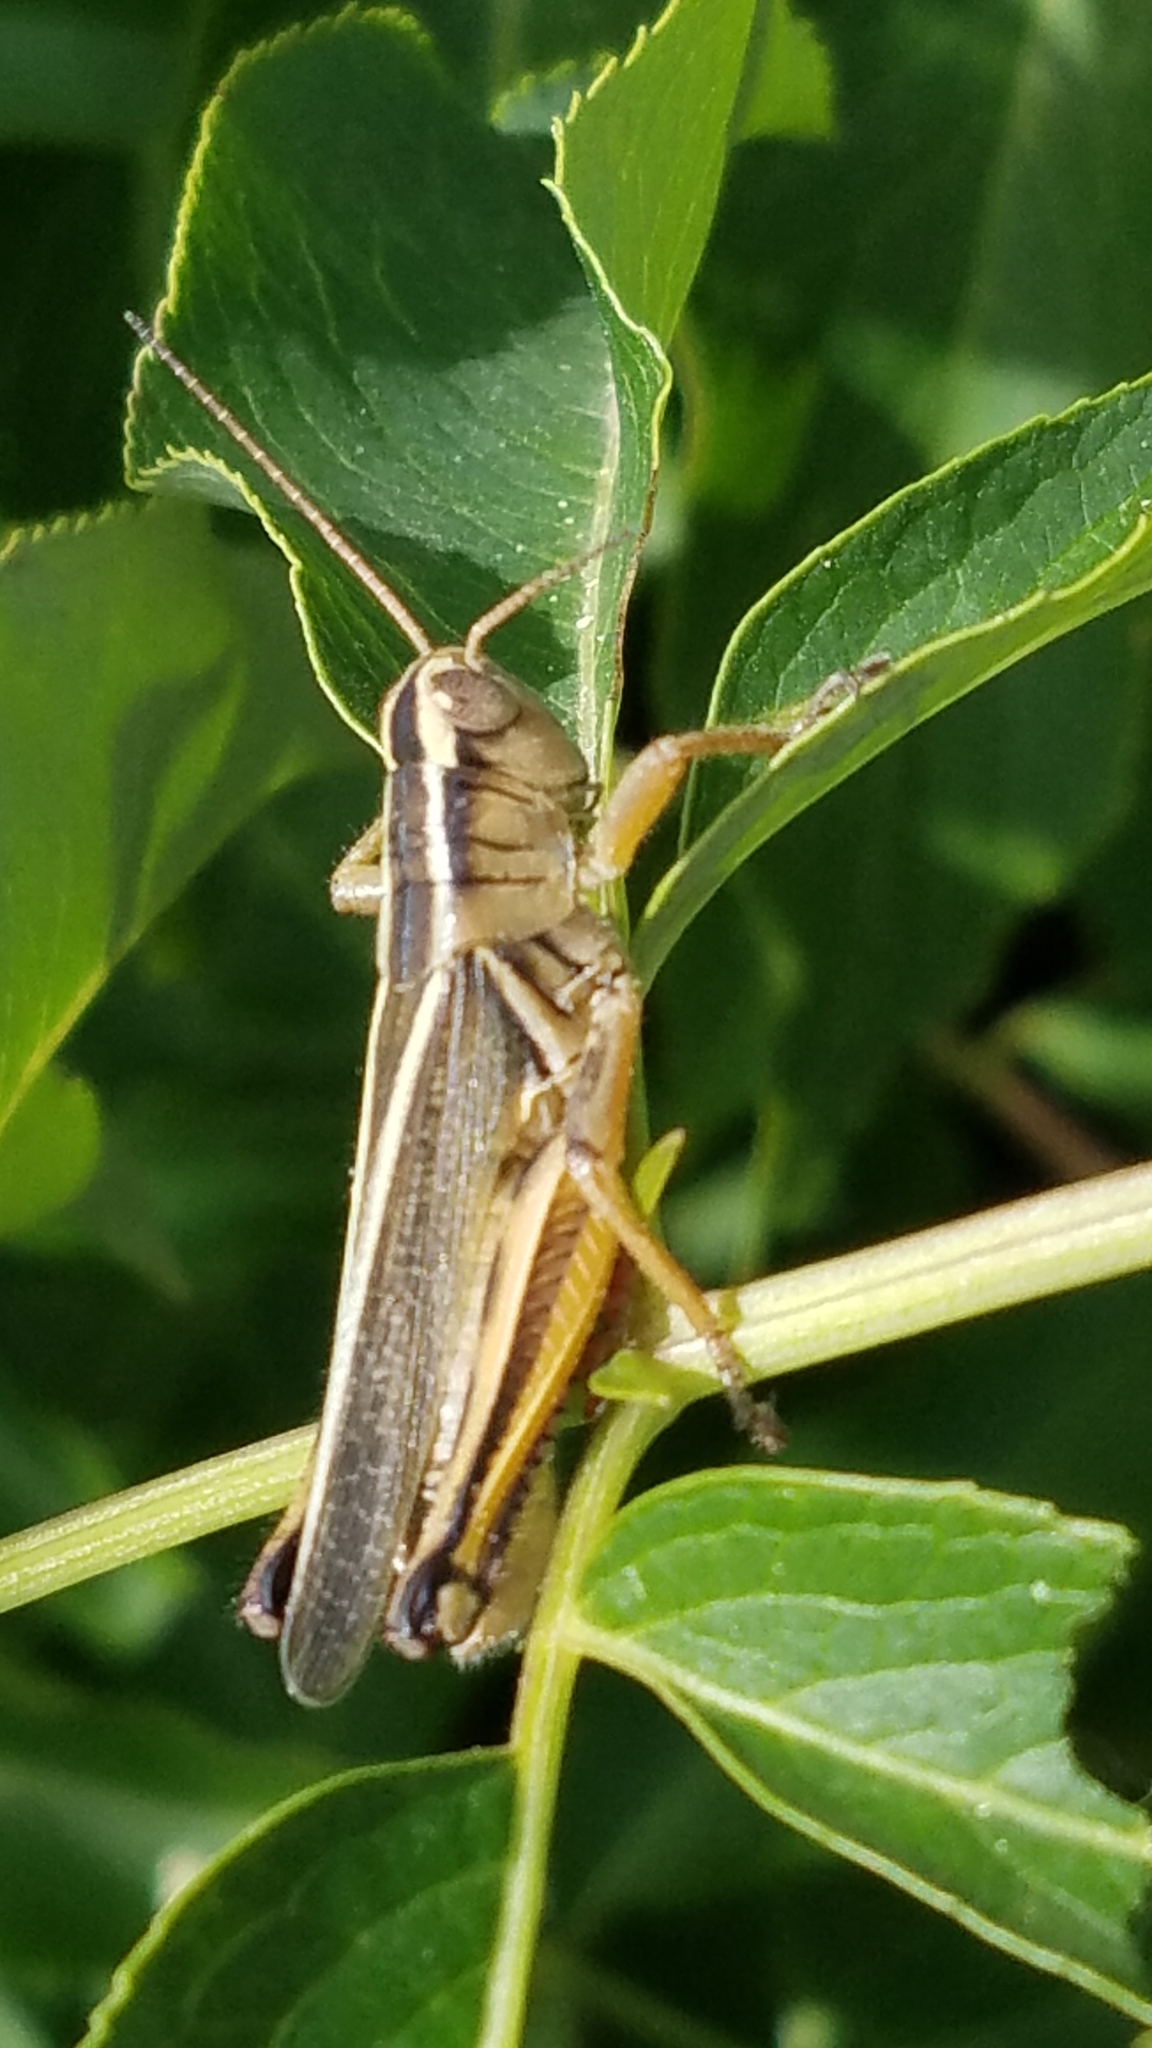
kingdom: Animalia
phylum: Arthropoda
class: Insecta
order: Orthoptera
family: Acrididae
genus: Melanoplus
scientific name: Melanoplus bivittatus
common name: Two-striped grasshopper
